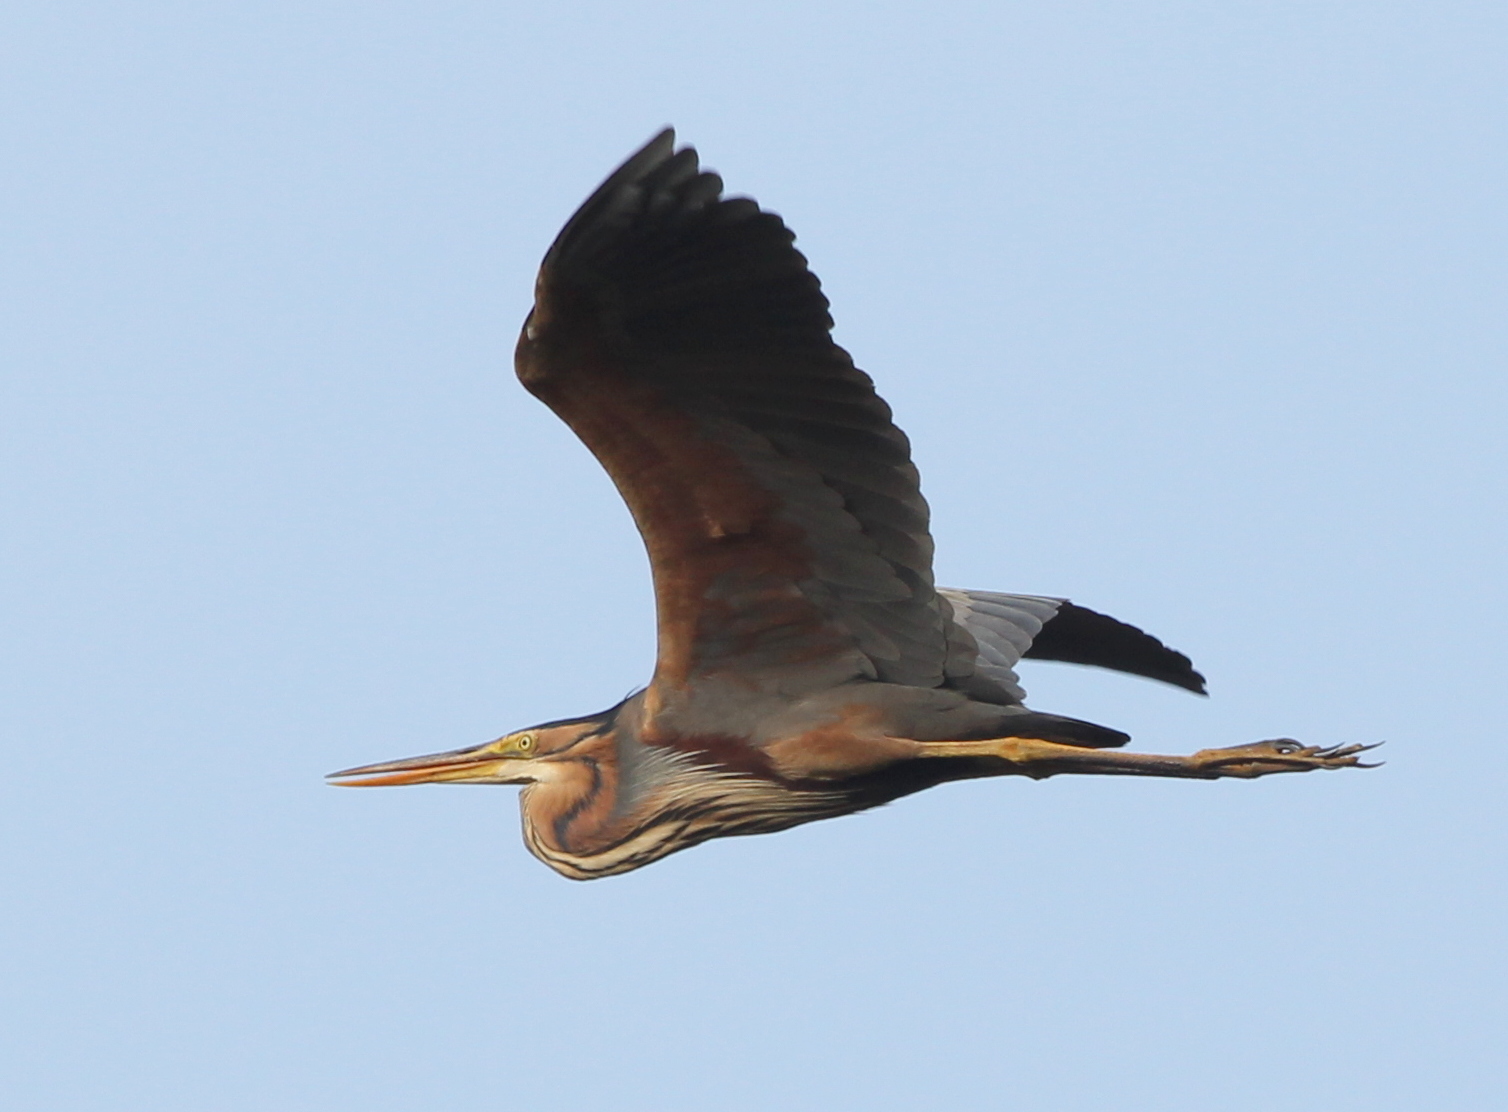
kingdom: Animalia
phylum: Chordata
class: Aves
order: Pelecaniformes
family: Ardeidae
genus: Ardea
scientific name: Ardea purpurea
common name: Purple heron
